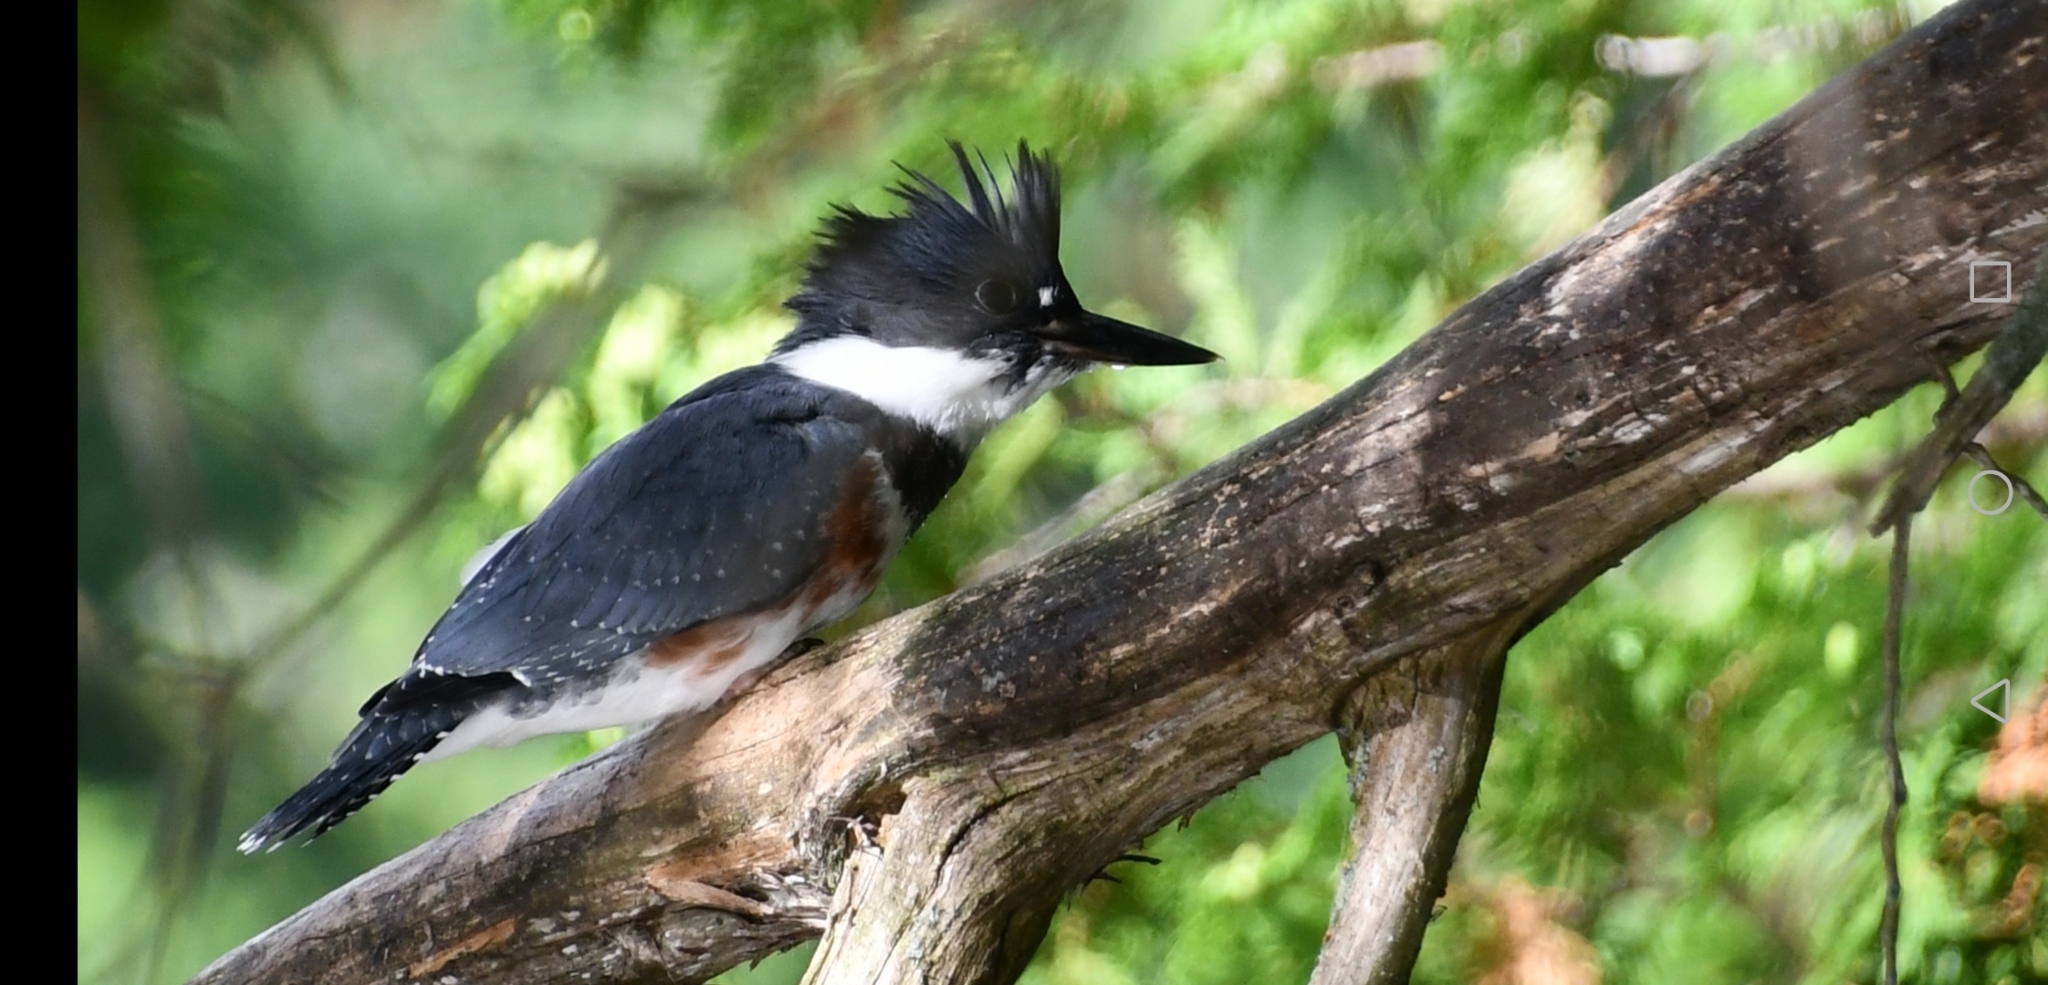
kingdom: Animalia
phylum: Chordata
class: Aves
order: Coraciiformes
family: Alcedinidae
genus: Megaceryle
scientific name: Megaceryle alcyon
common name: Belted kingfisher
